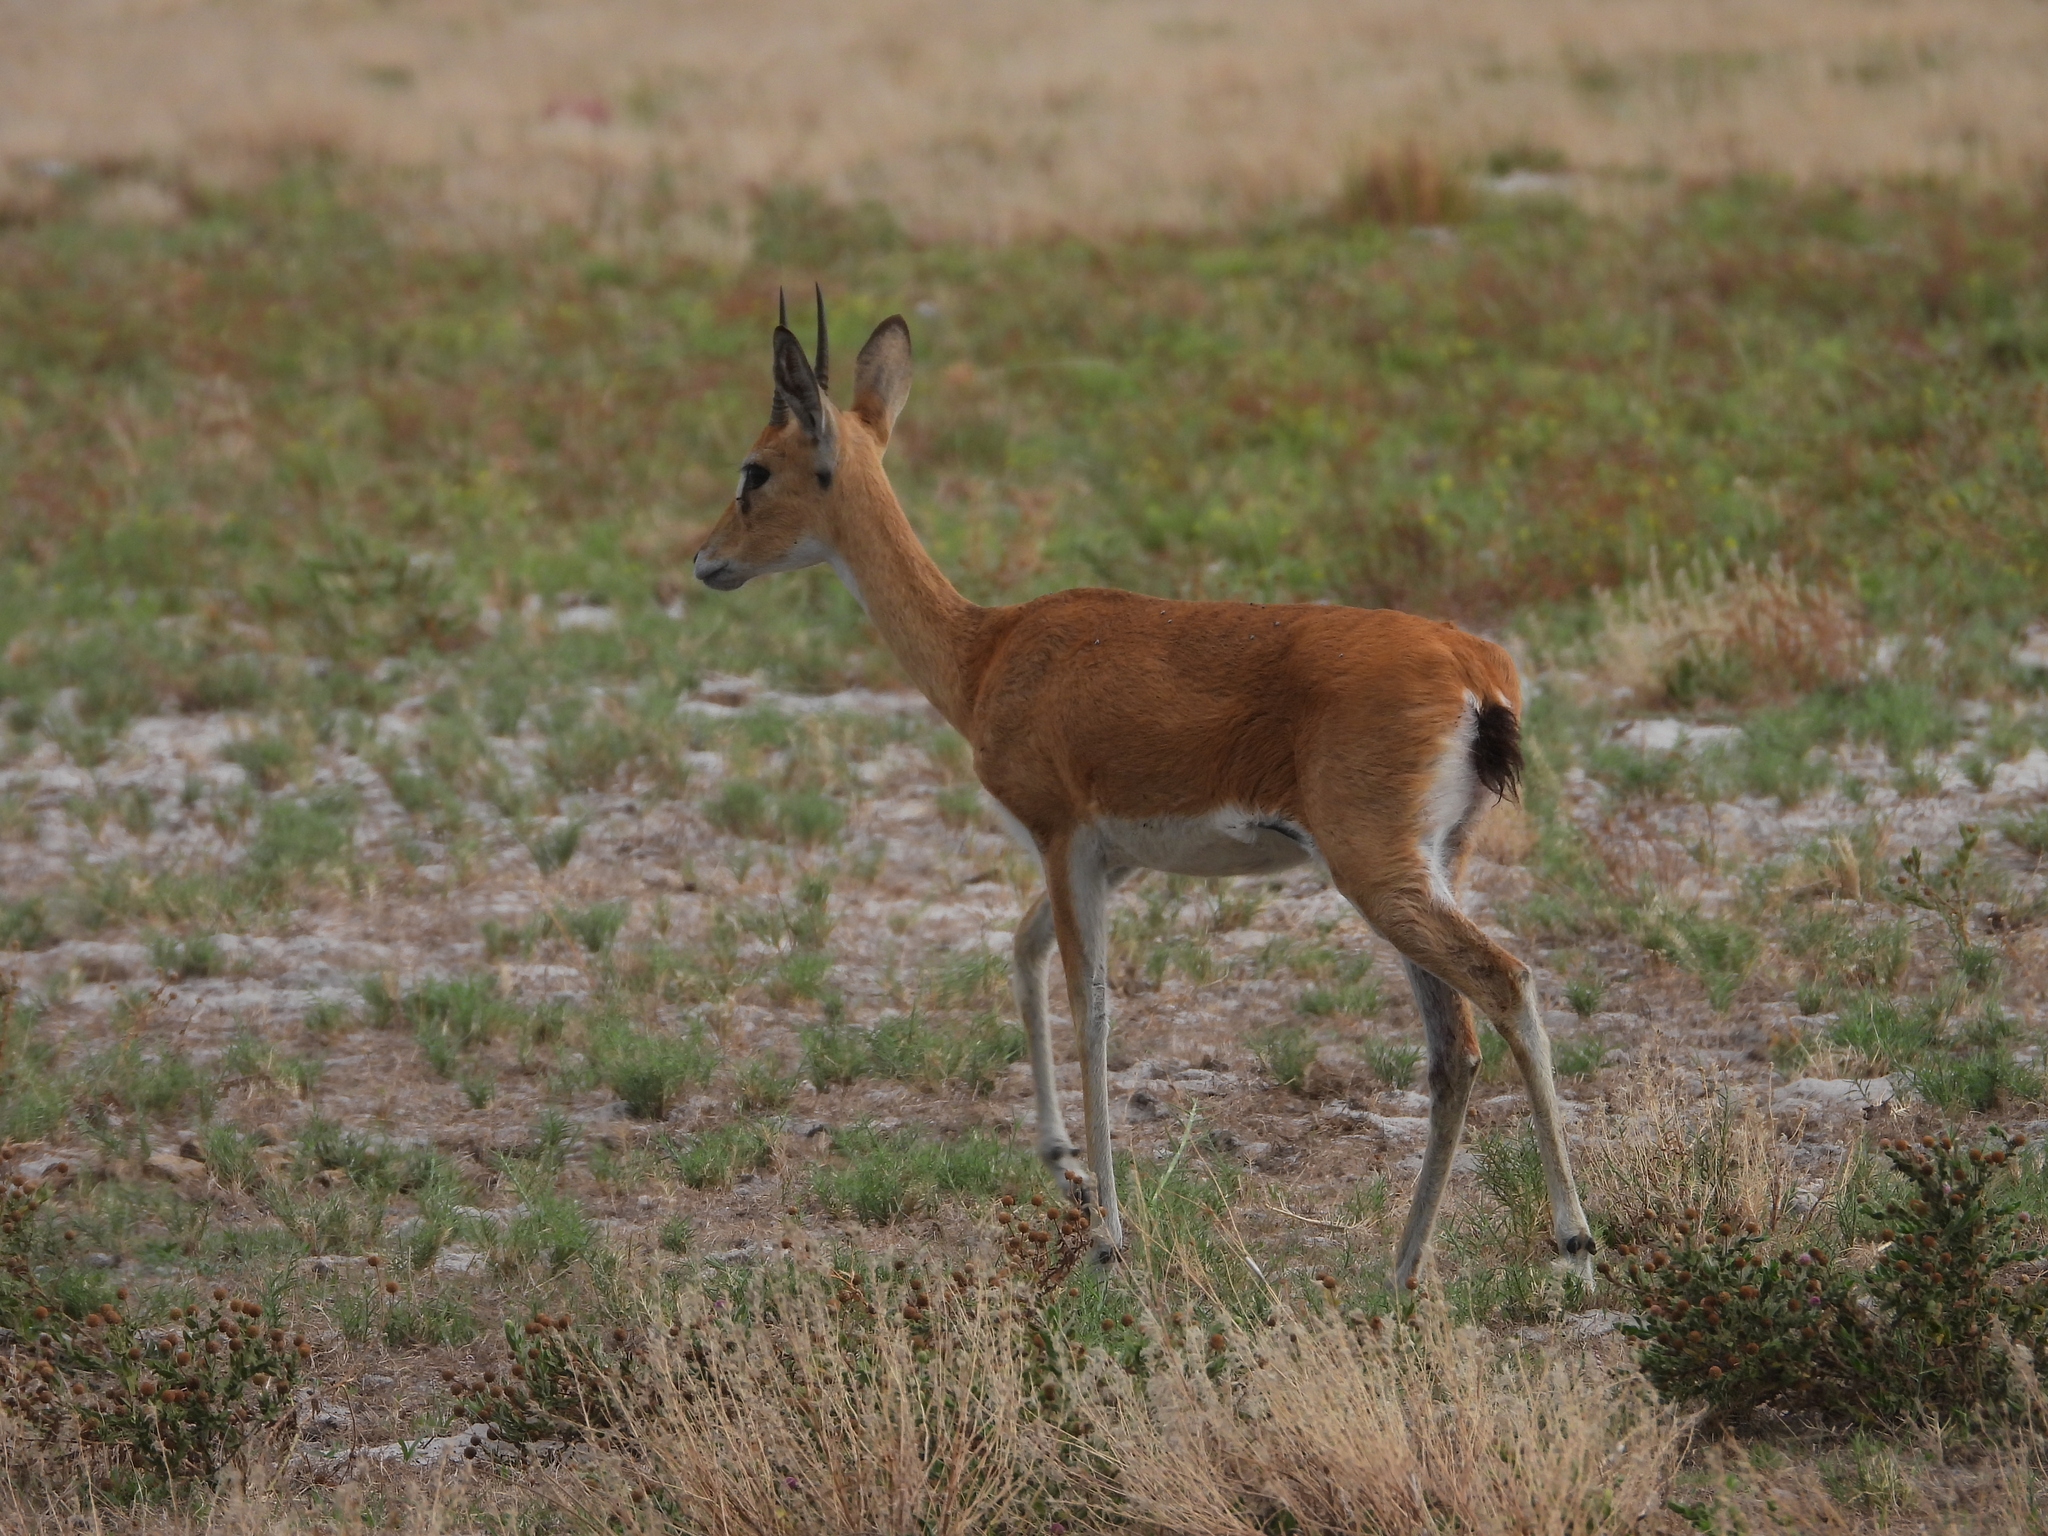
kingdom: Animalia
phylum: Chordata
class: Mammalia
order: Artiodactyla
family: Bovidae
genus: Ourebia
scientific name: Ourebia ourebi
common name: Oribi
